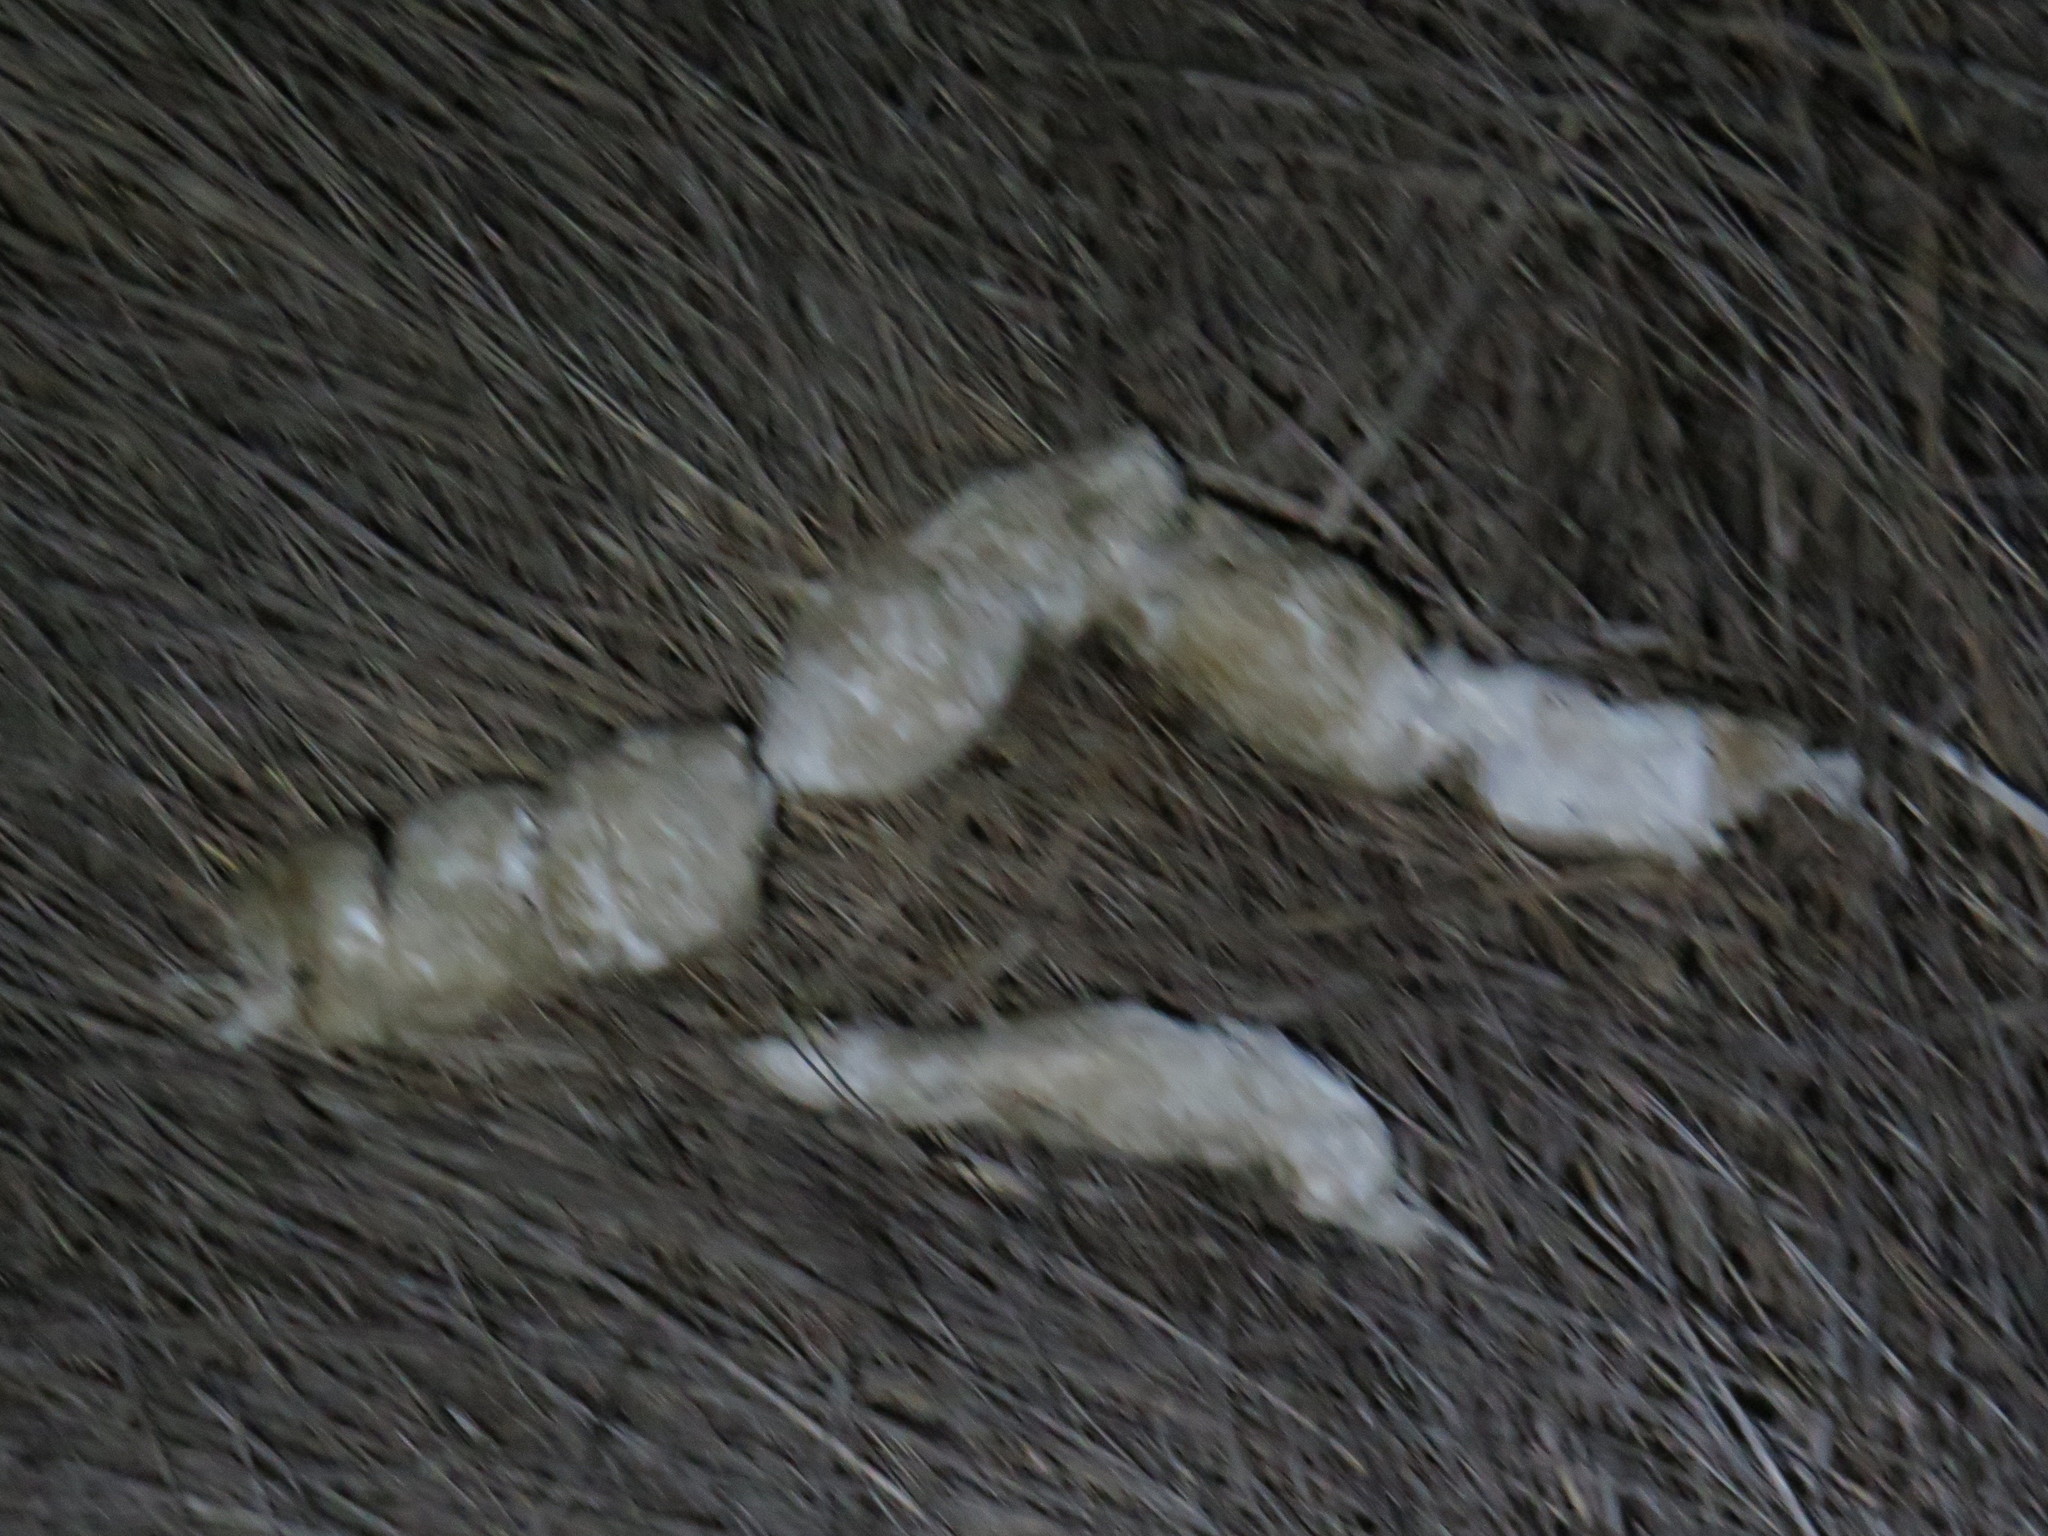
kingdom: Animalia
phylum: Chordata
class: Mammalia
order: Carnivora
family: Canidae
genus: Canis
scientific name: Canis lupus
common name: Gray wolf
